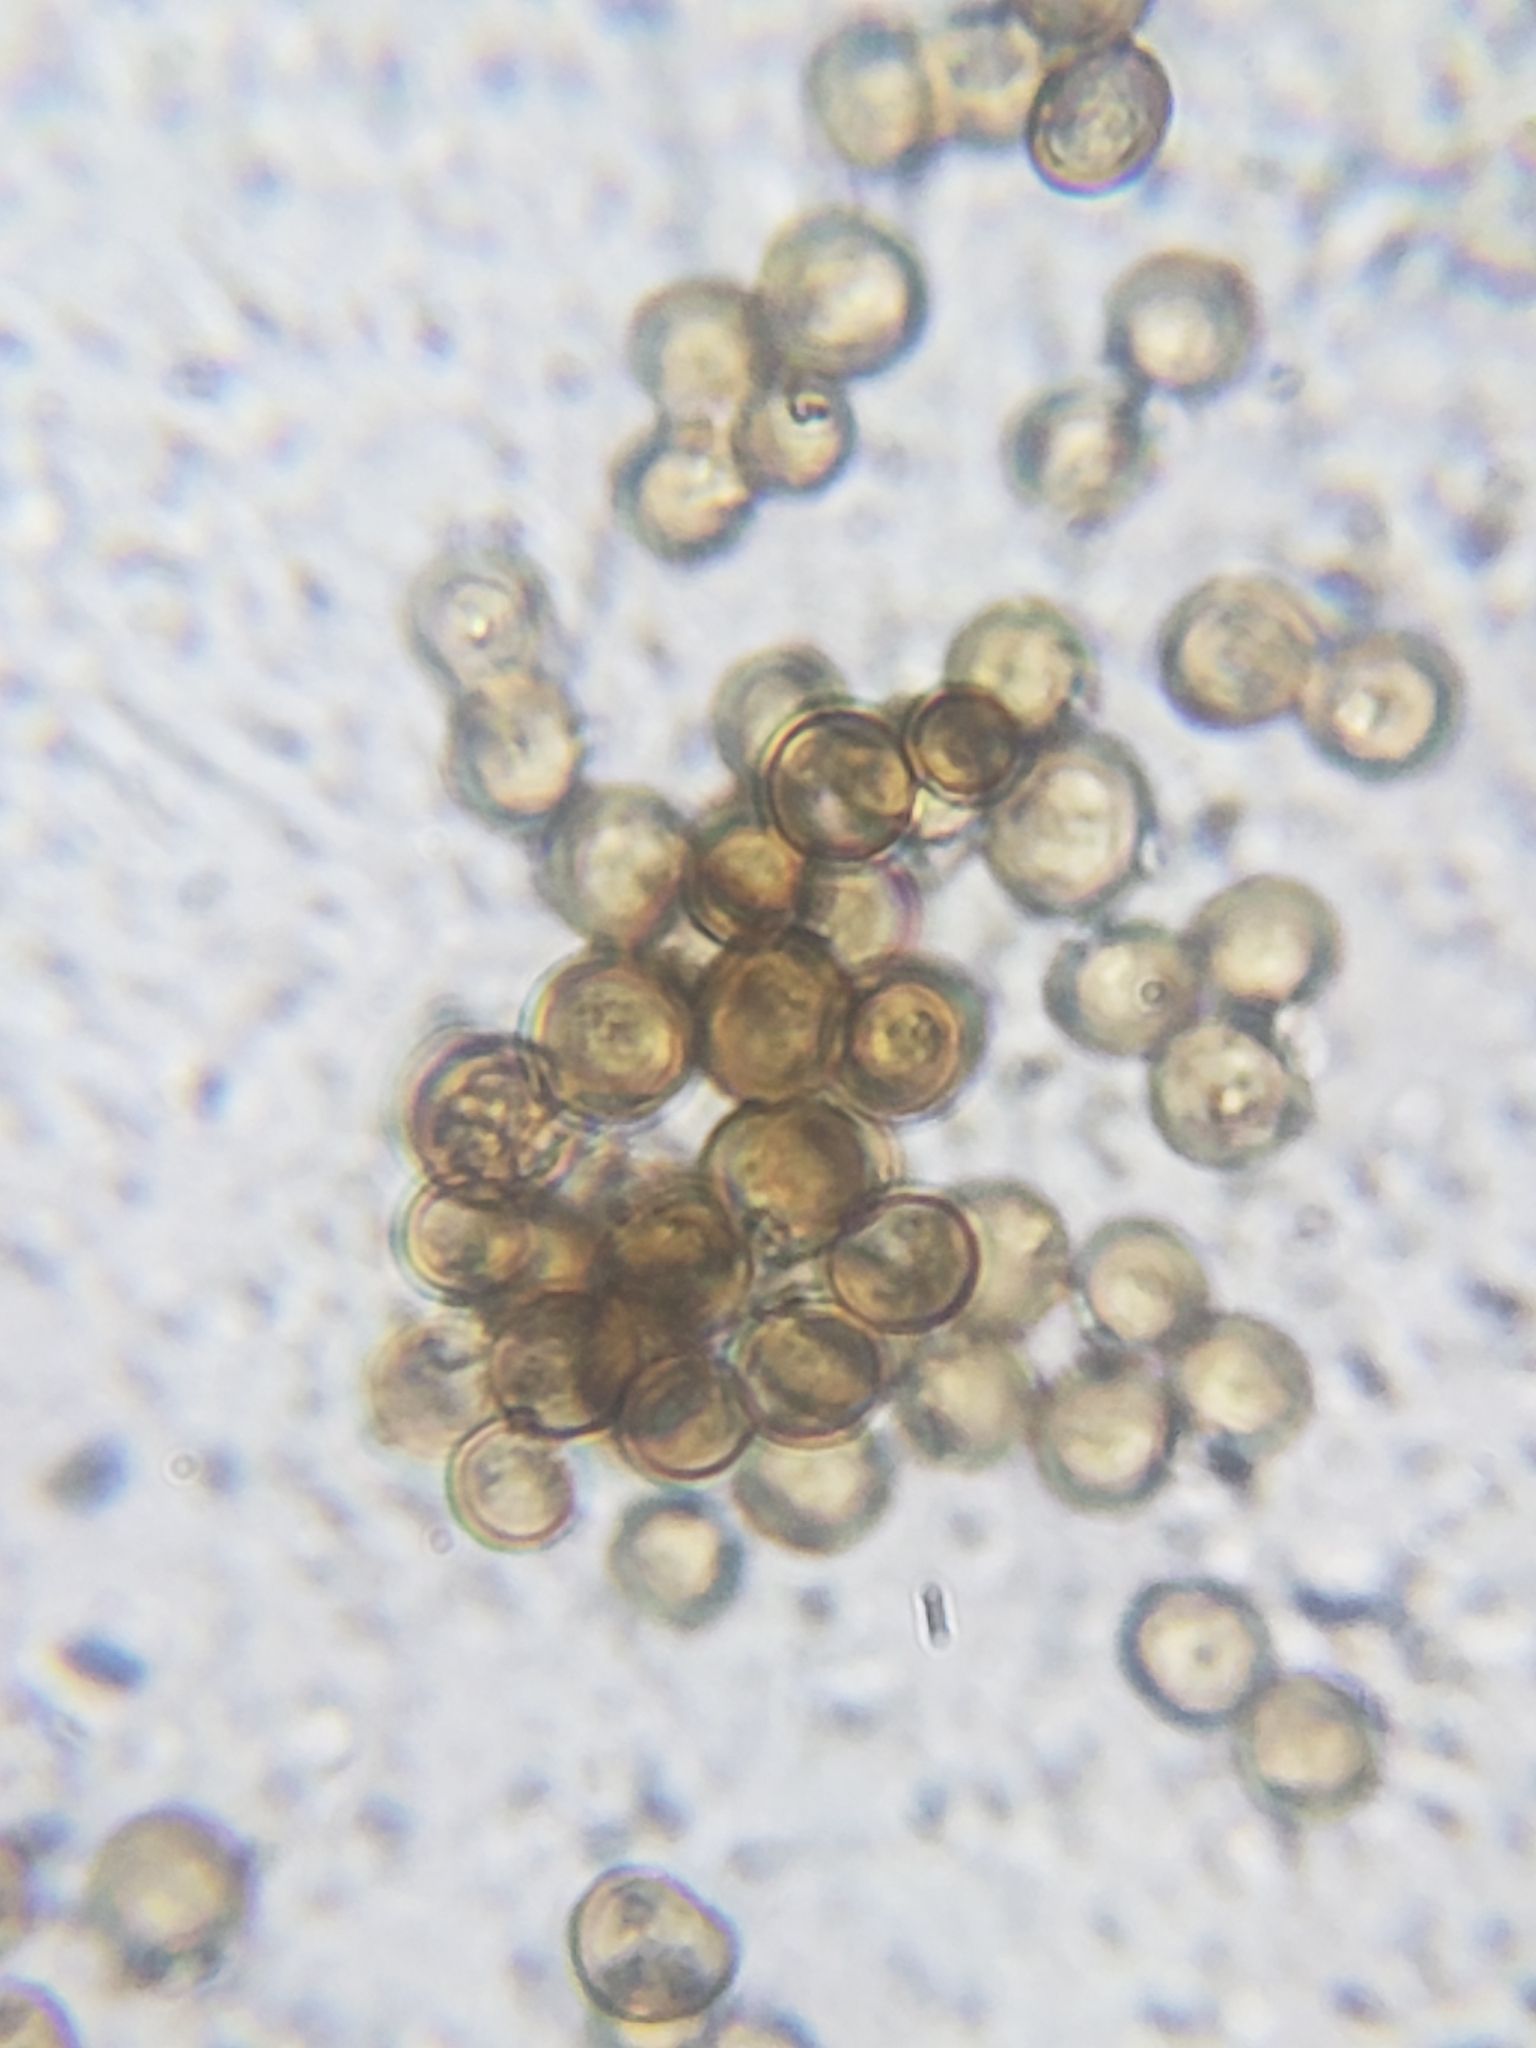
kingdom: Fungi
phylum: Basidiomycota
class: Atractiellomycetes
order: Atractiellales
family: Phleogenaceae
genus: Phleogena
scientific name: Phleogena faginea
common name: Fenugreek stalkball
